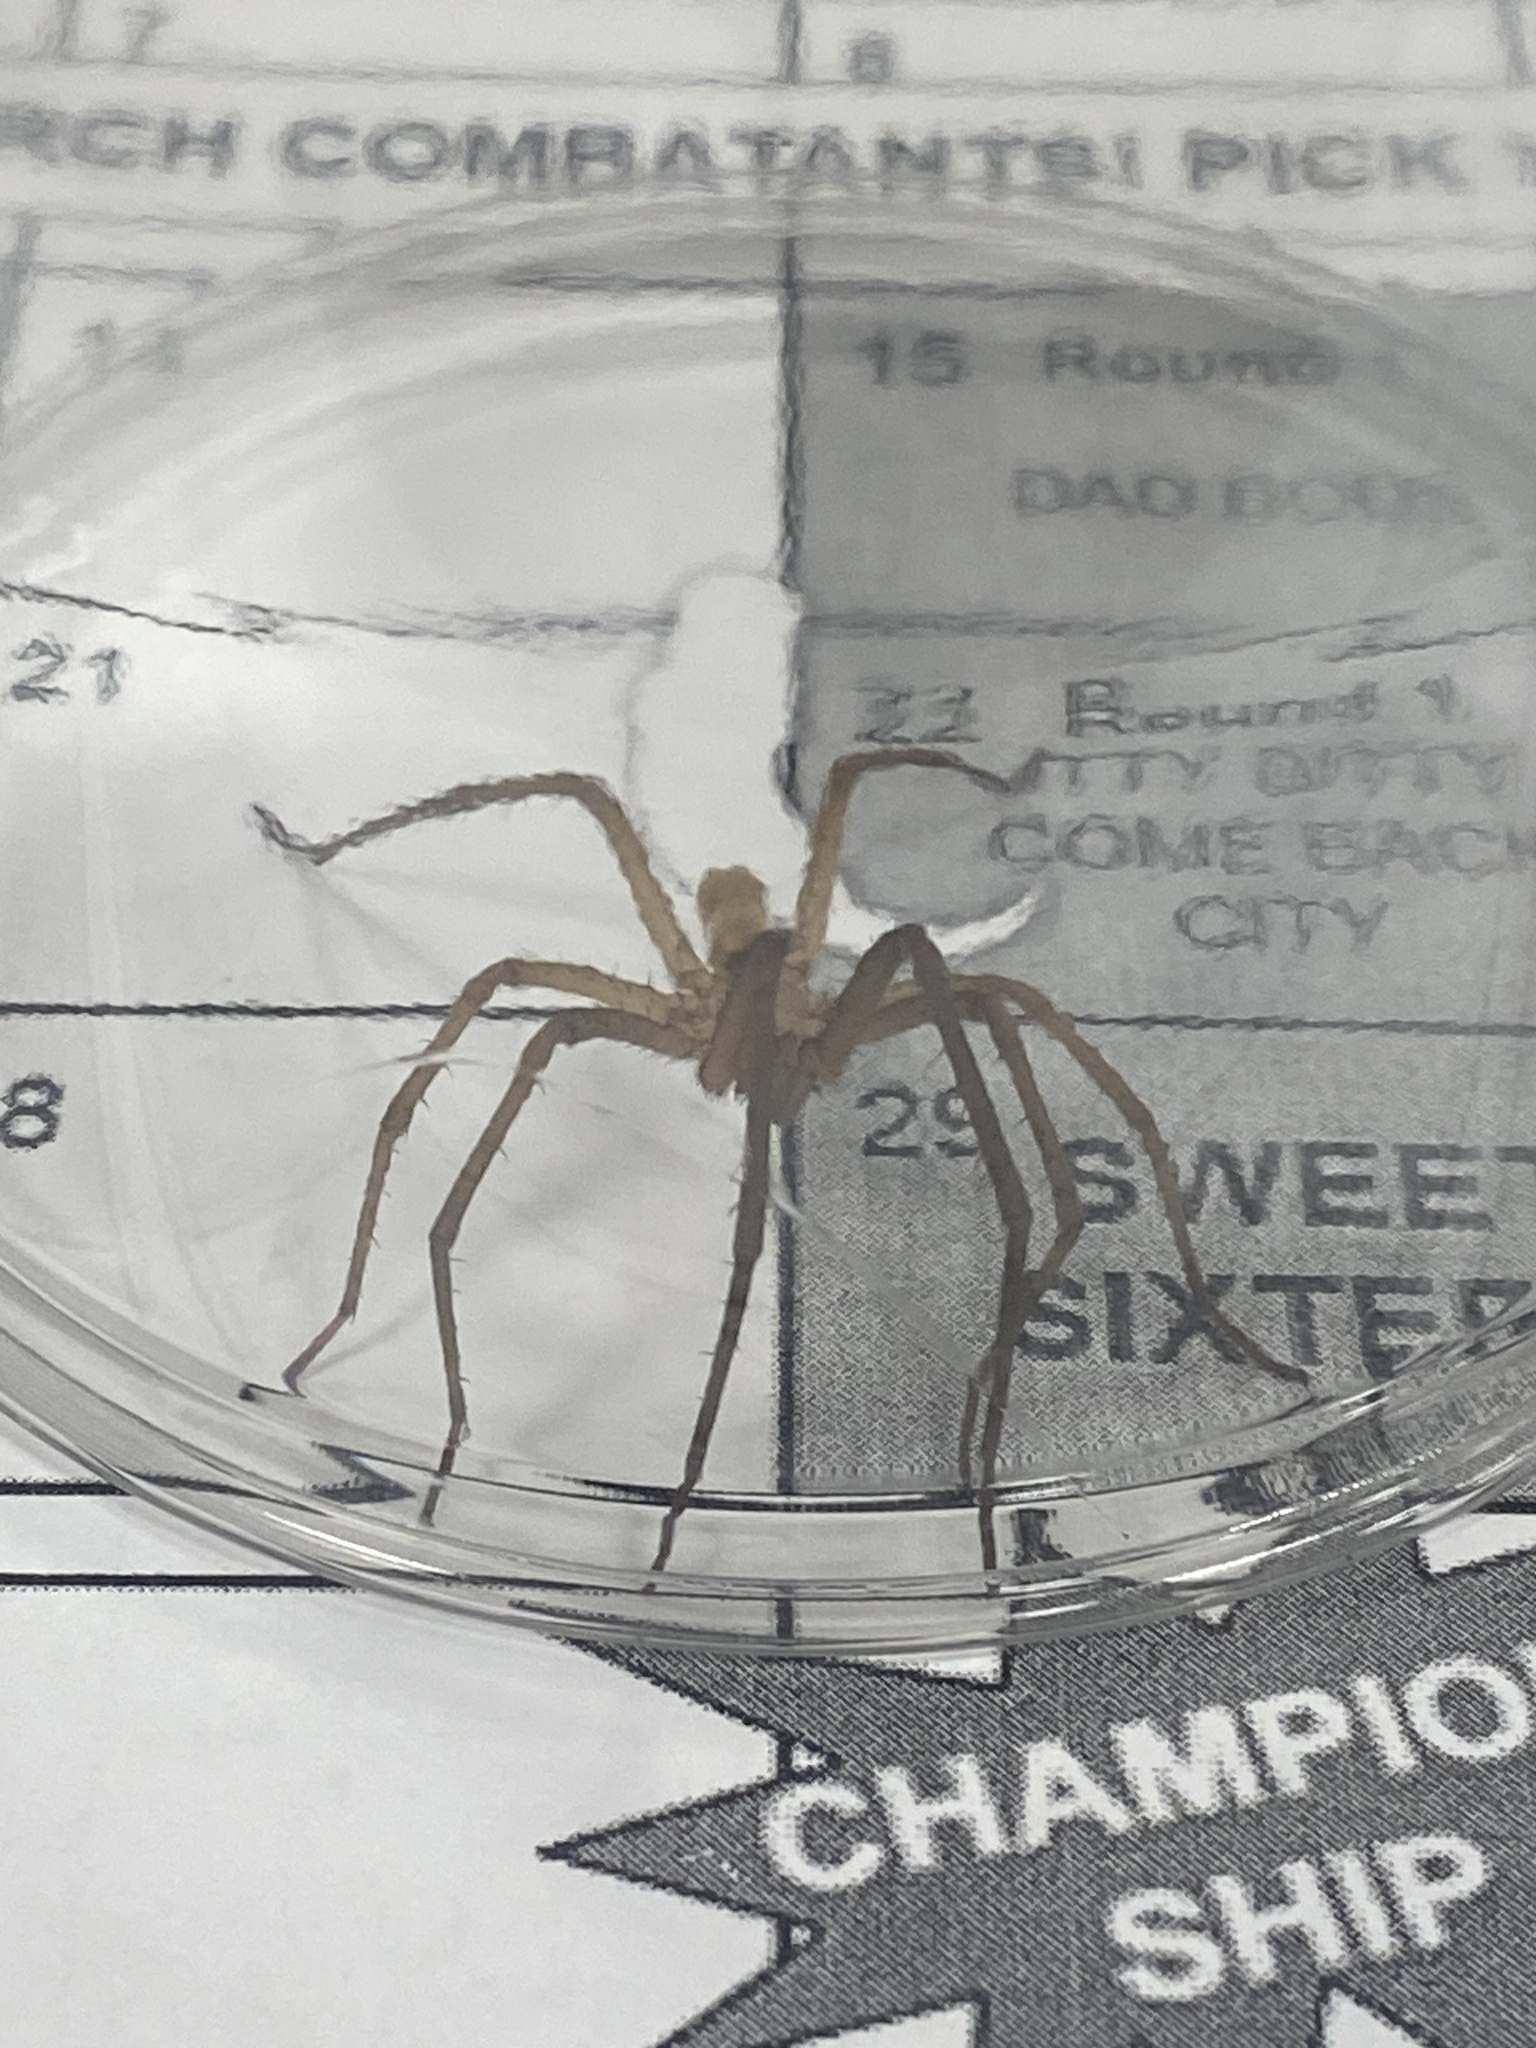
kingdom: Animalia
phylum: Arthropoda
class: Arachnida
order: Araneae
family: Filistatidae
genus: Kukulcania
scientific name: Kukulcania hibernalis
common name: Crevice weaver
